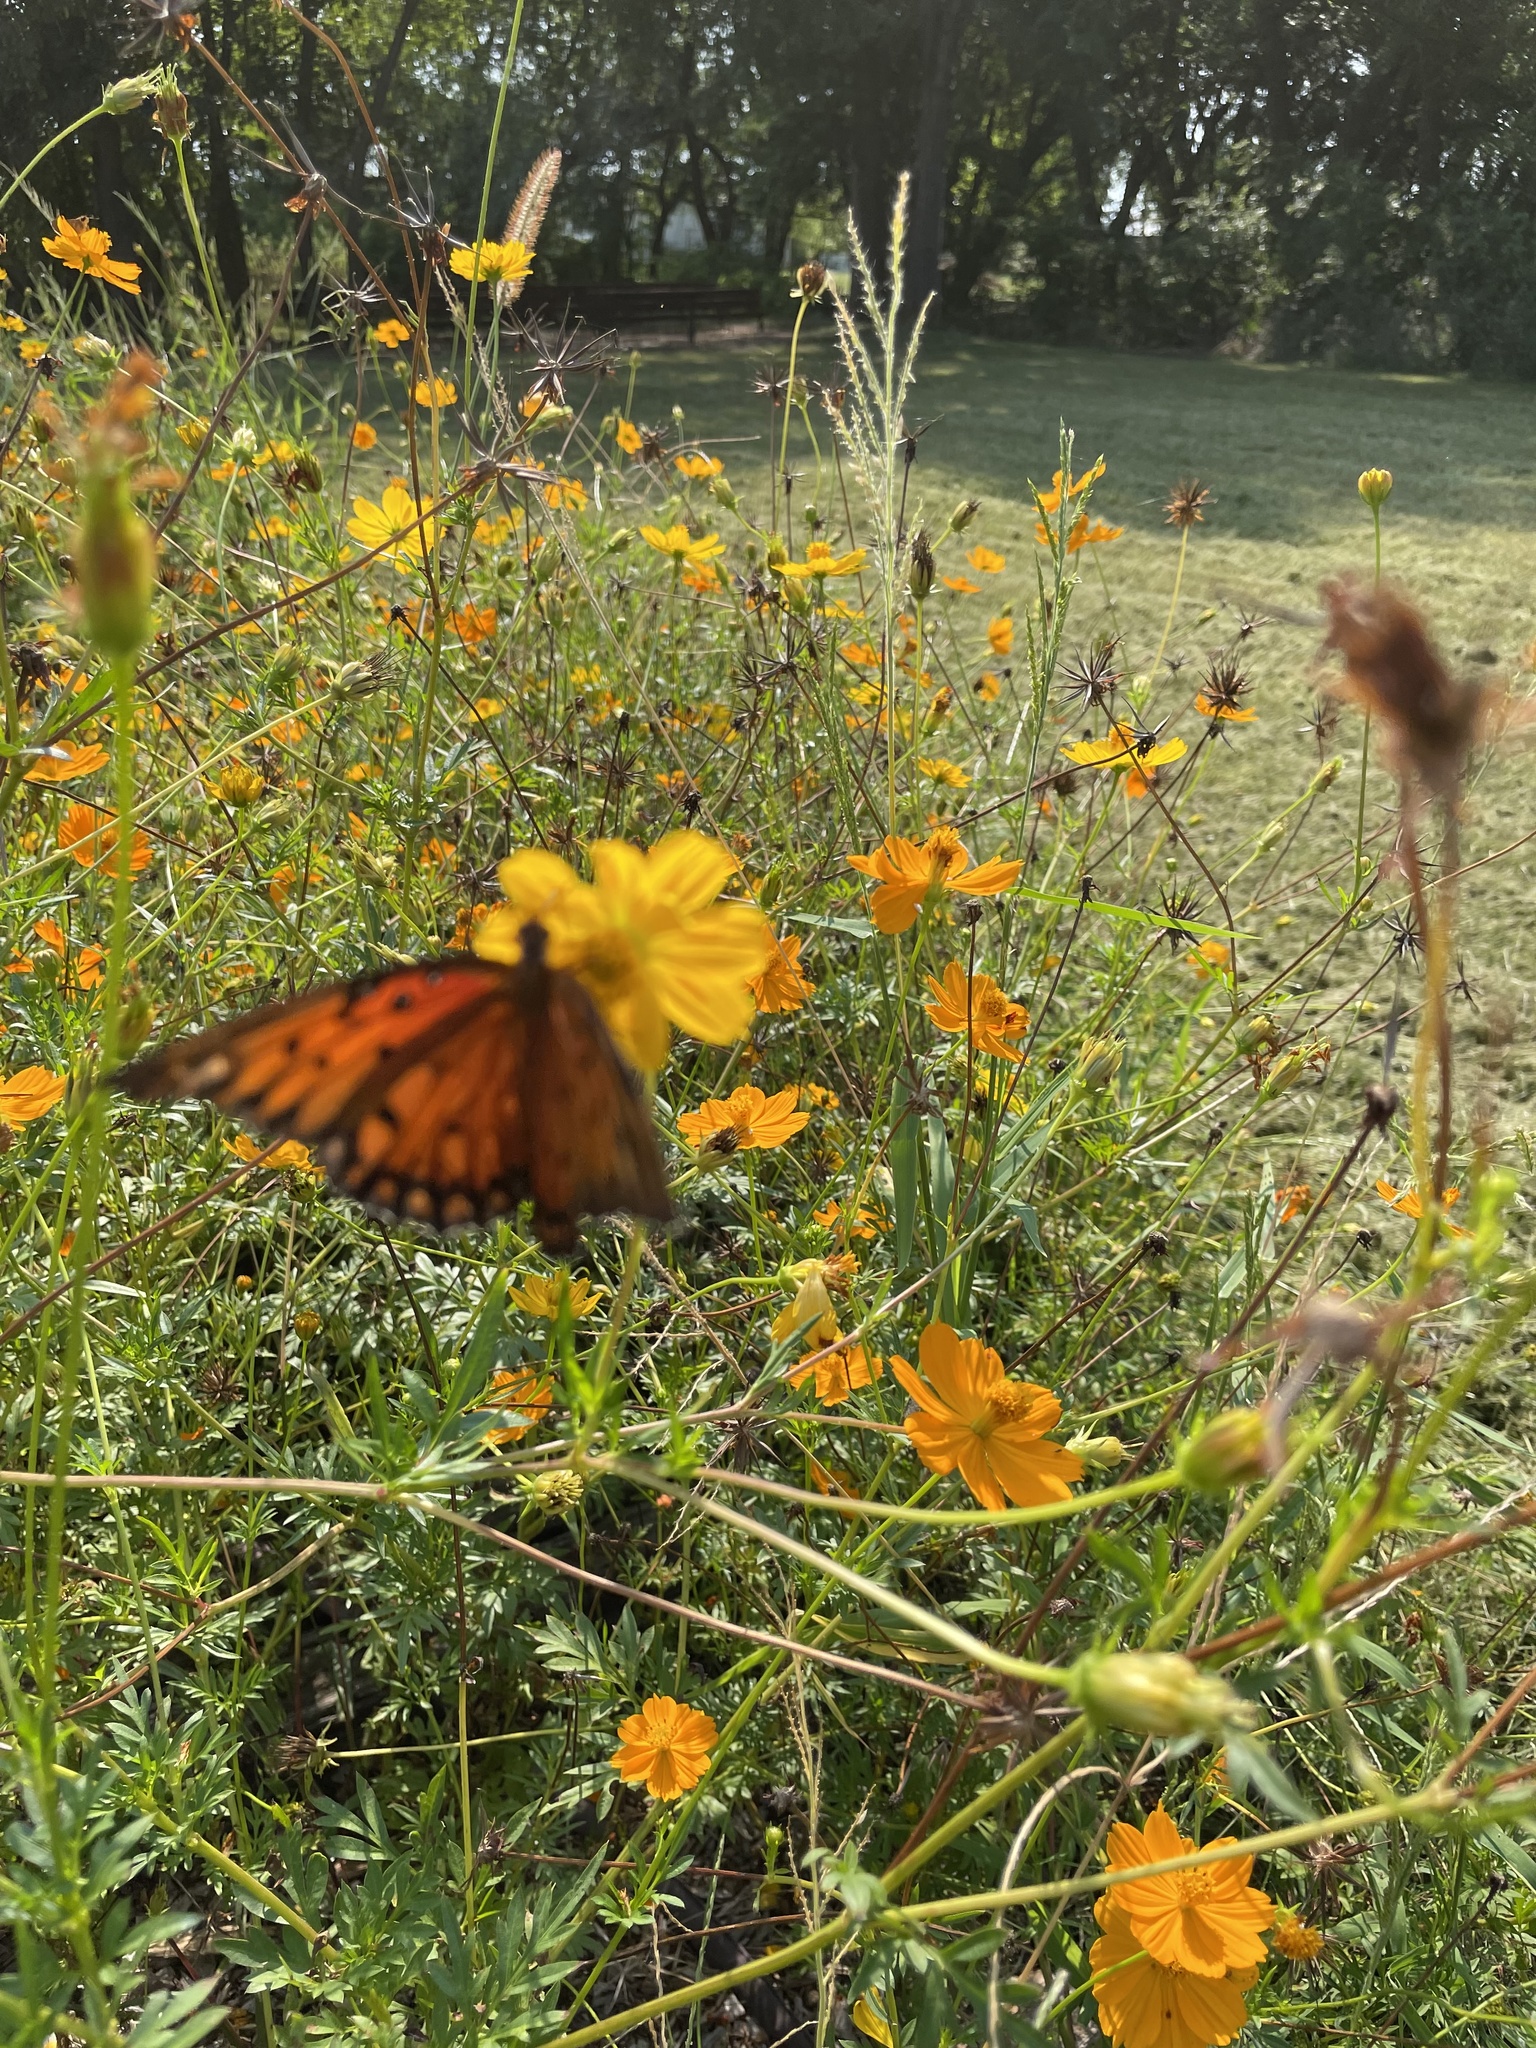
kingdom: Animalia
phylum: Arthropoda
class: Insecta
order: Lepidoptera
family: Nymphalidae
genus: Dione
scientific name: Dione vanillae
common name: Gulf fritillary
